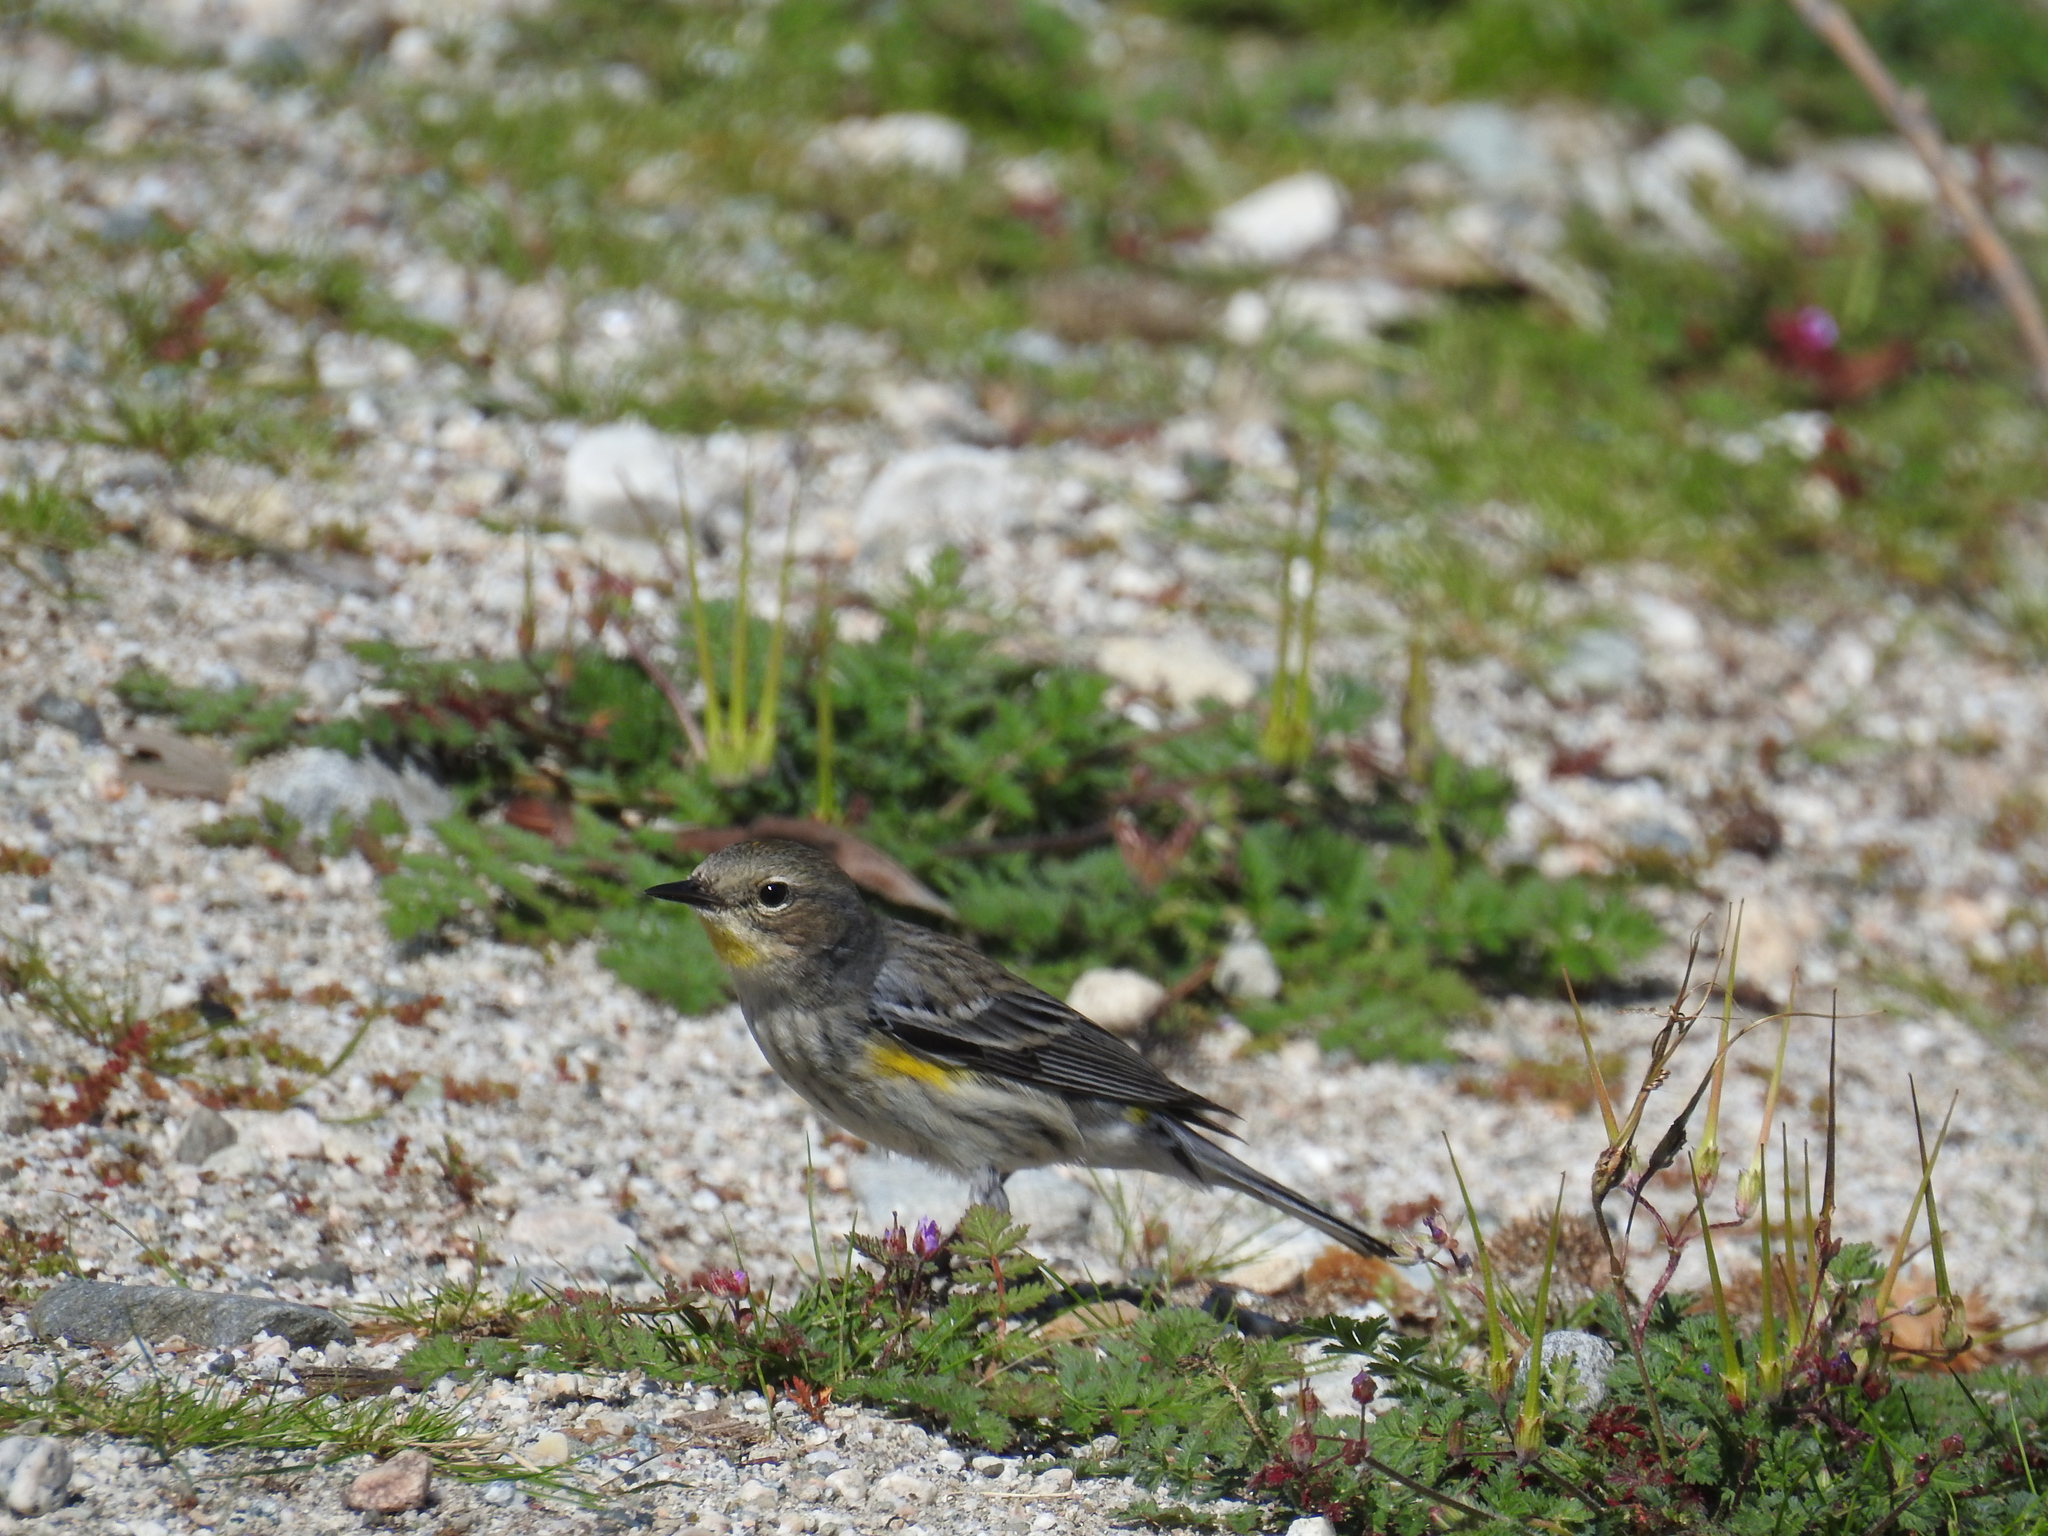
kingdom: Animalia
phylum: Chordata
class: Aves
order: Passeriformes
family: Parulidae
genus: Setophaga
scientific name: Setophaga coronata
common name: Myrtle warbler
